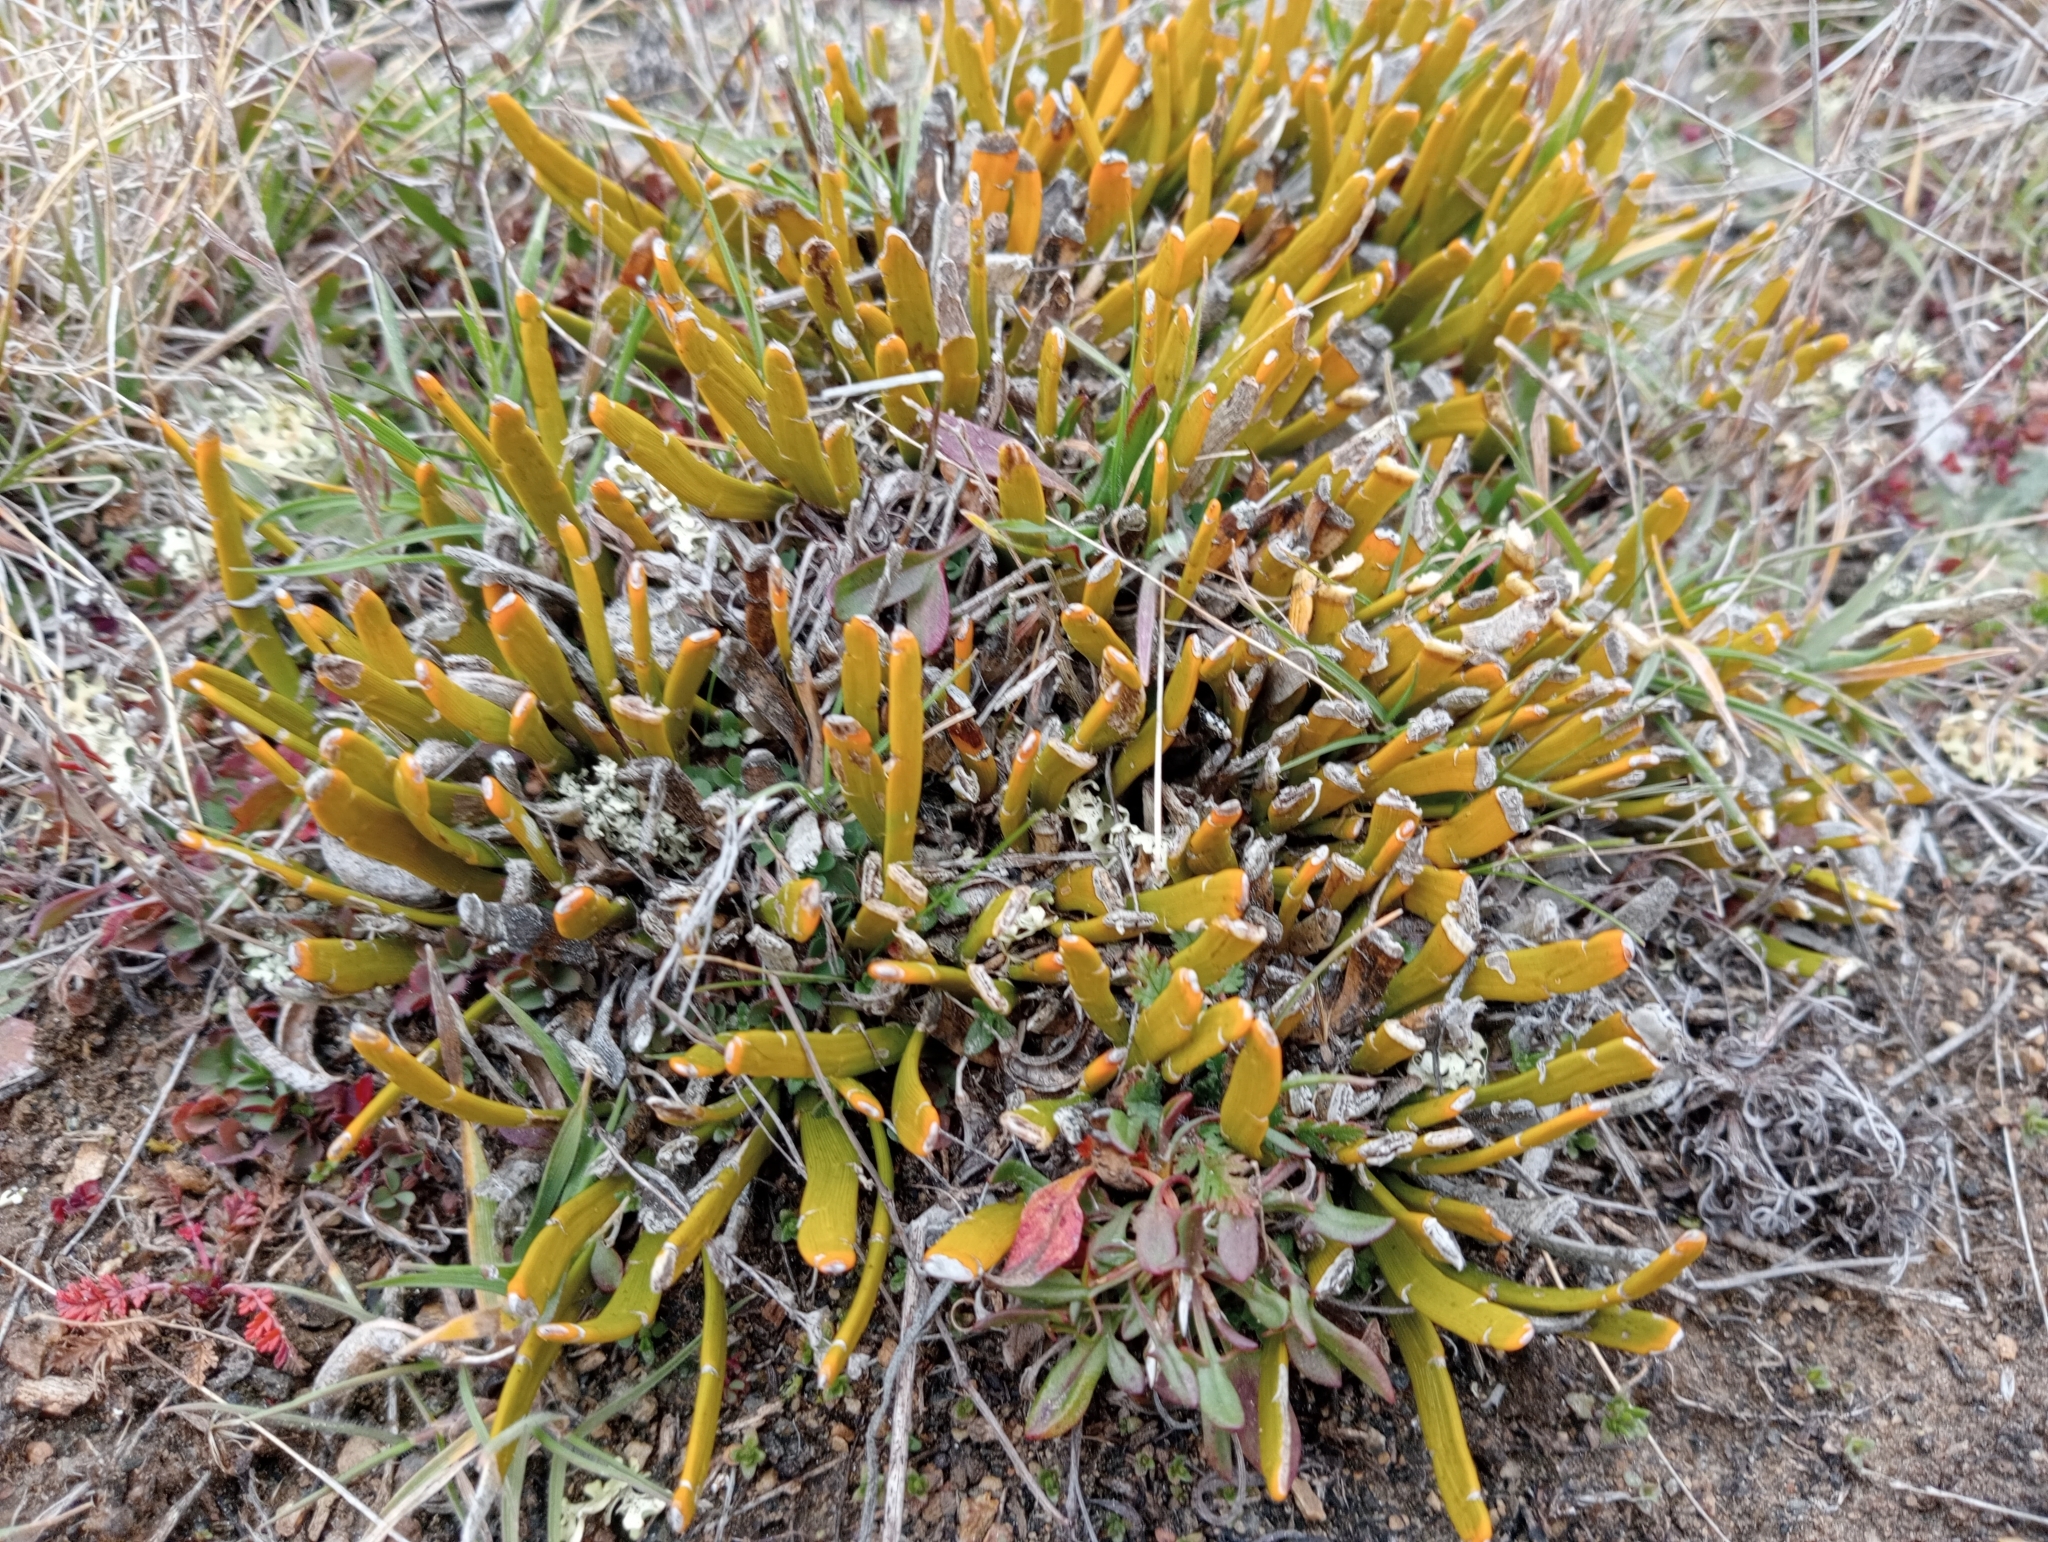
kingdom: Plantae
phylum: Tracheophyta
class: Magnoliopsida
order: Fabales
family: Fabaceae
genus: Carmichaelia
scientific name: Carmichaelia vexillata
